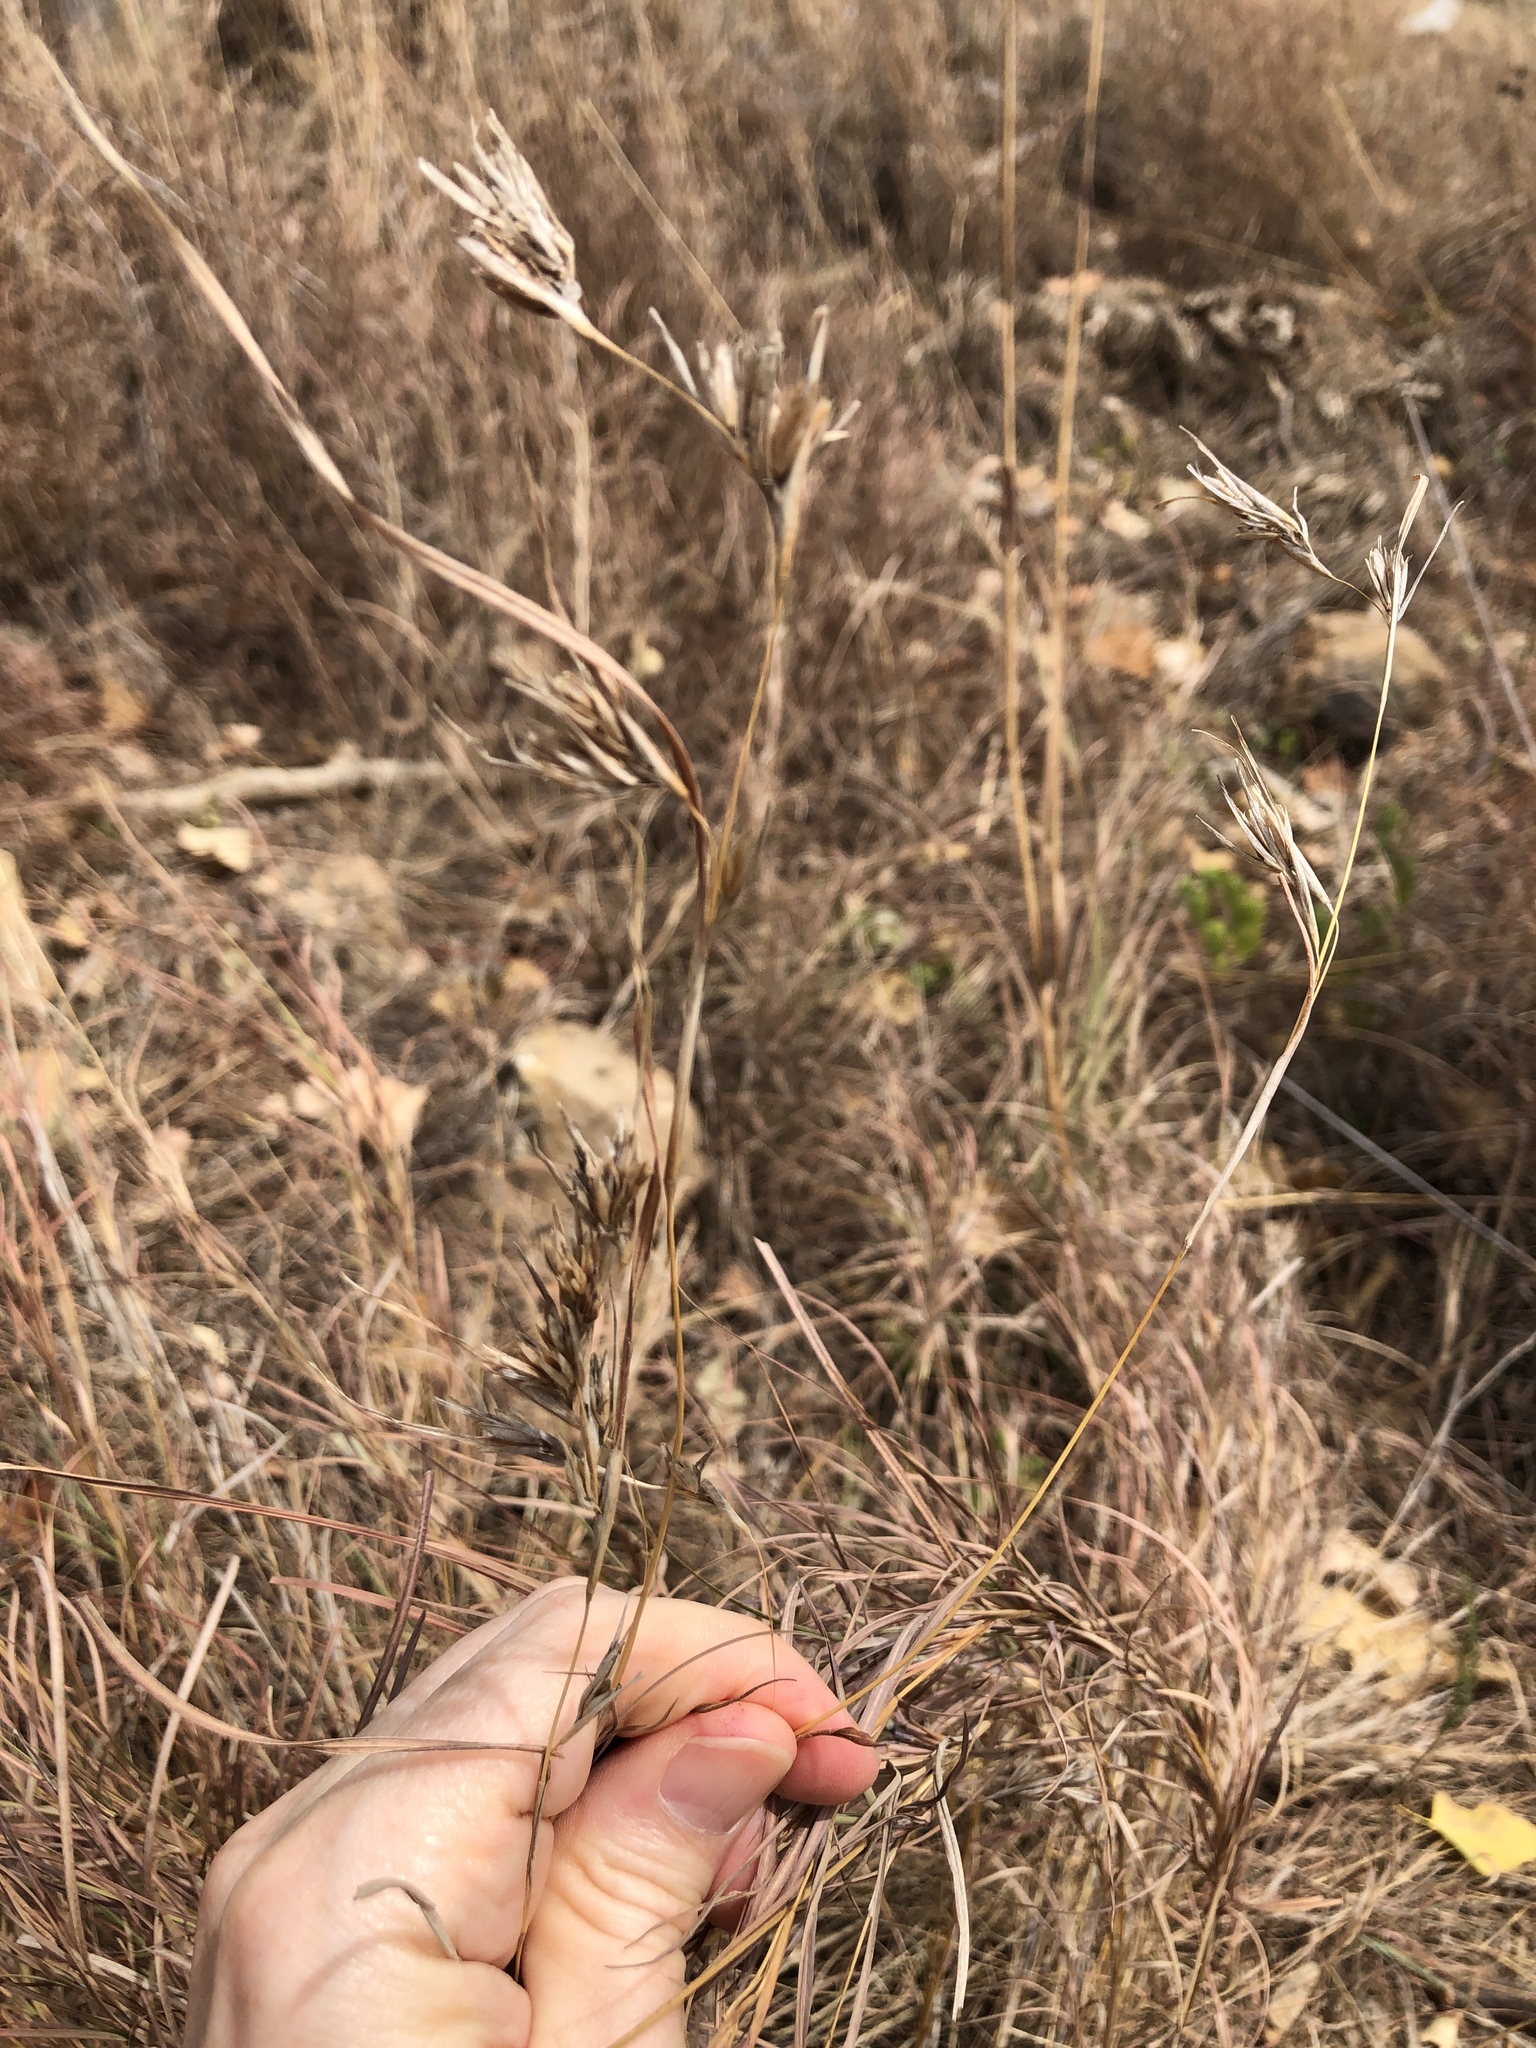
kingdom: Plantae
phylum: Tracheophyta
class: Liliopsida
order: Poales
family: Poaceae
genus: Themeda
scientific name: Themeda triandra
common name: Kangaroo grass
